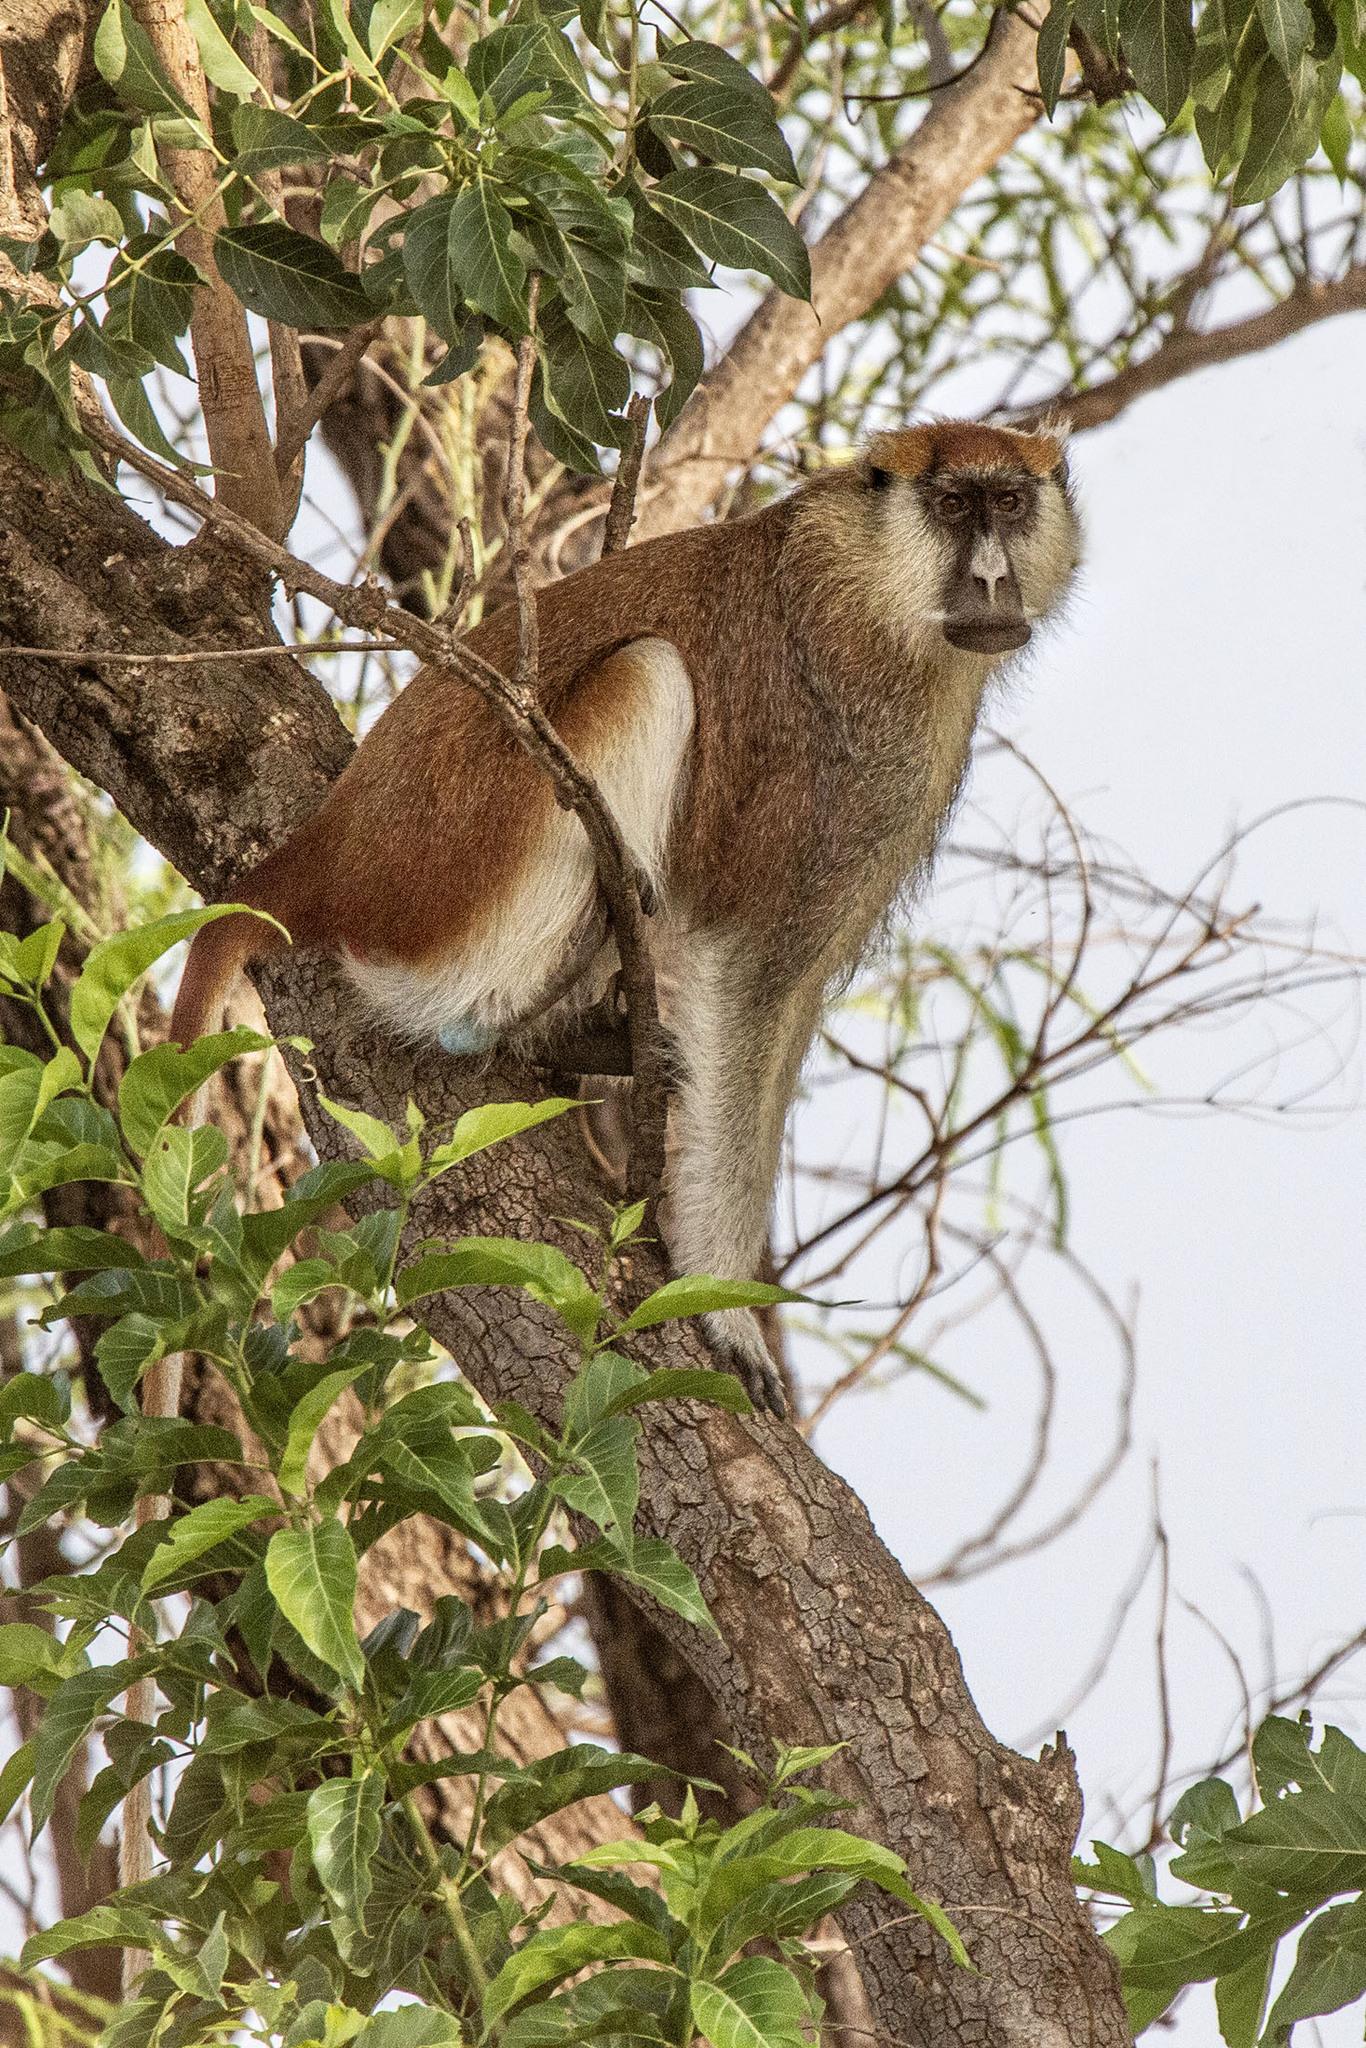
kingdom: Animalia
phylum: Chordata
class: Mammalia
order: Primates
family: Cercopithecidae
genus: Erythrocebus
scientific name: Erythrocebus patas
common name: Patas monkey
